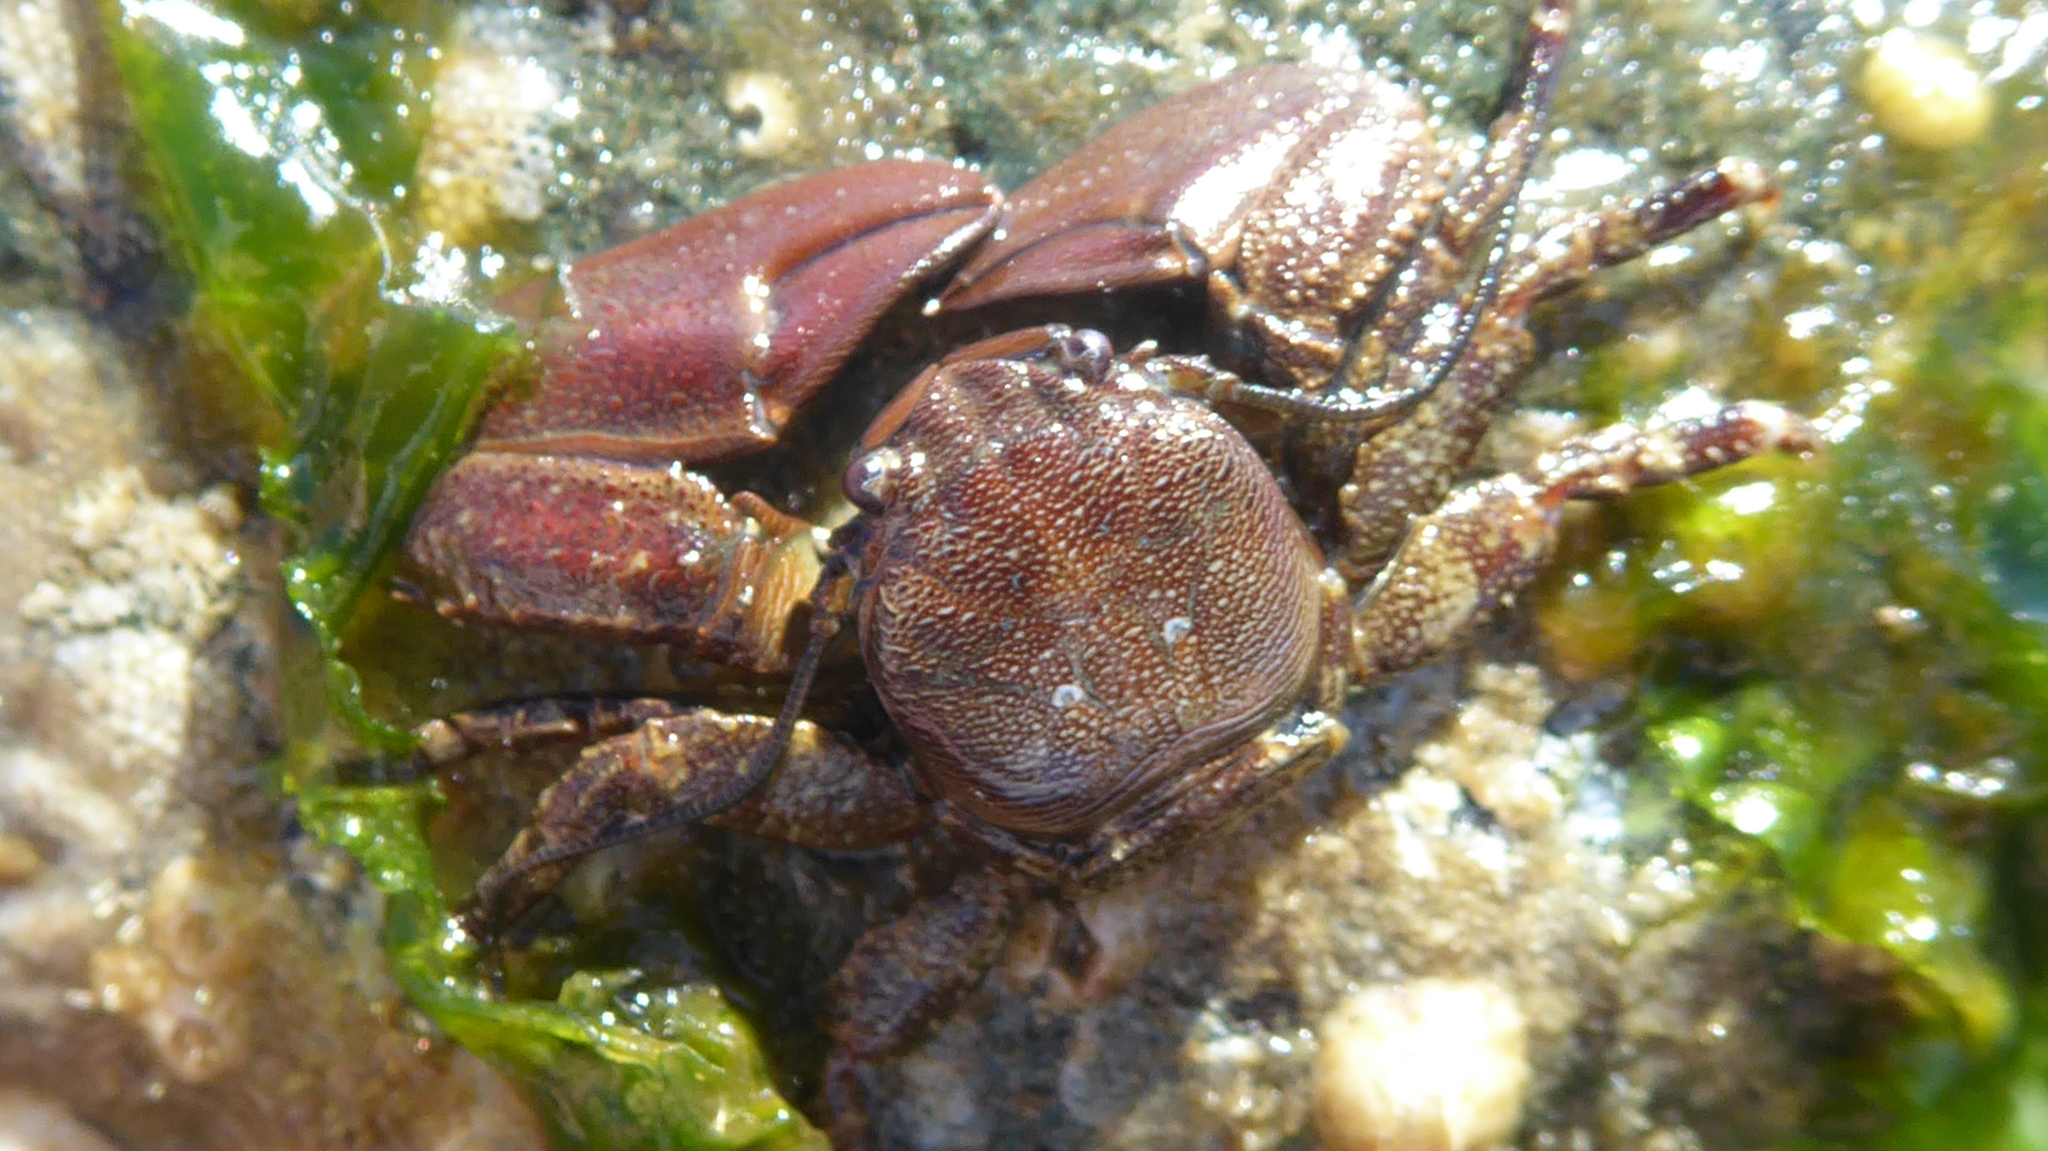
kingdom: Animalia
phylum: Arthropoda
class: Malacostraca
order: Decapoda
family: Porcellanidae
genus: Petrolisthes
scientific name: Petrolisthes eriomerus
